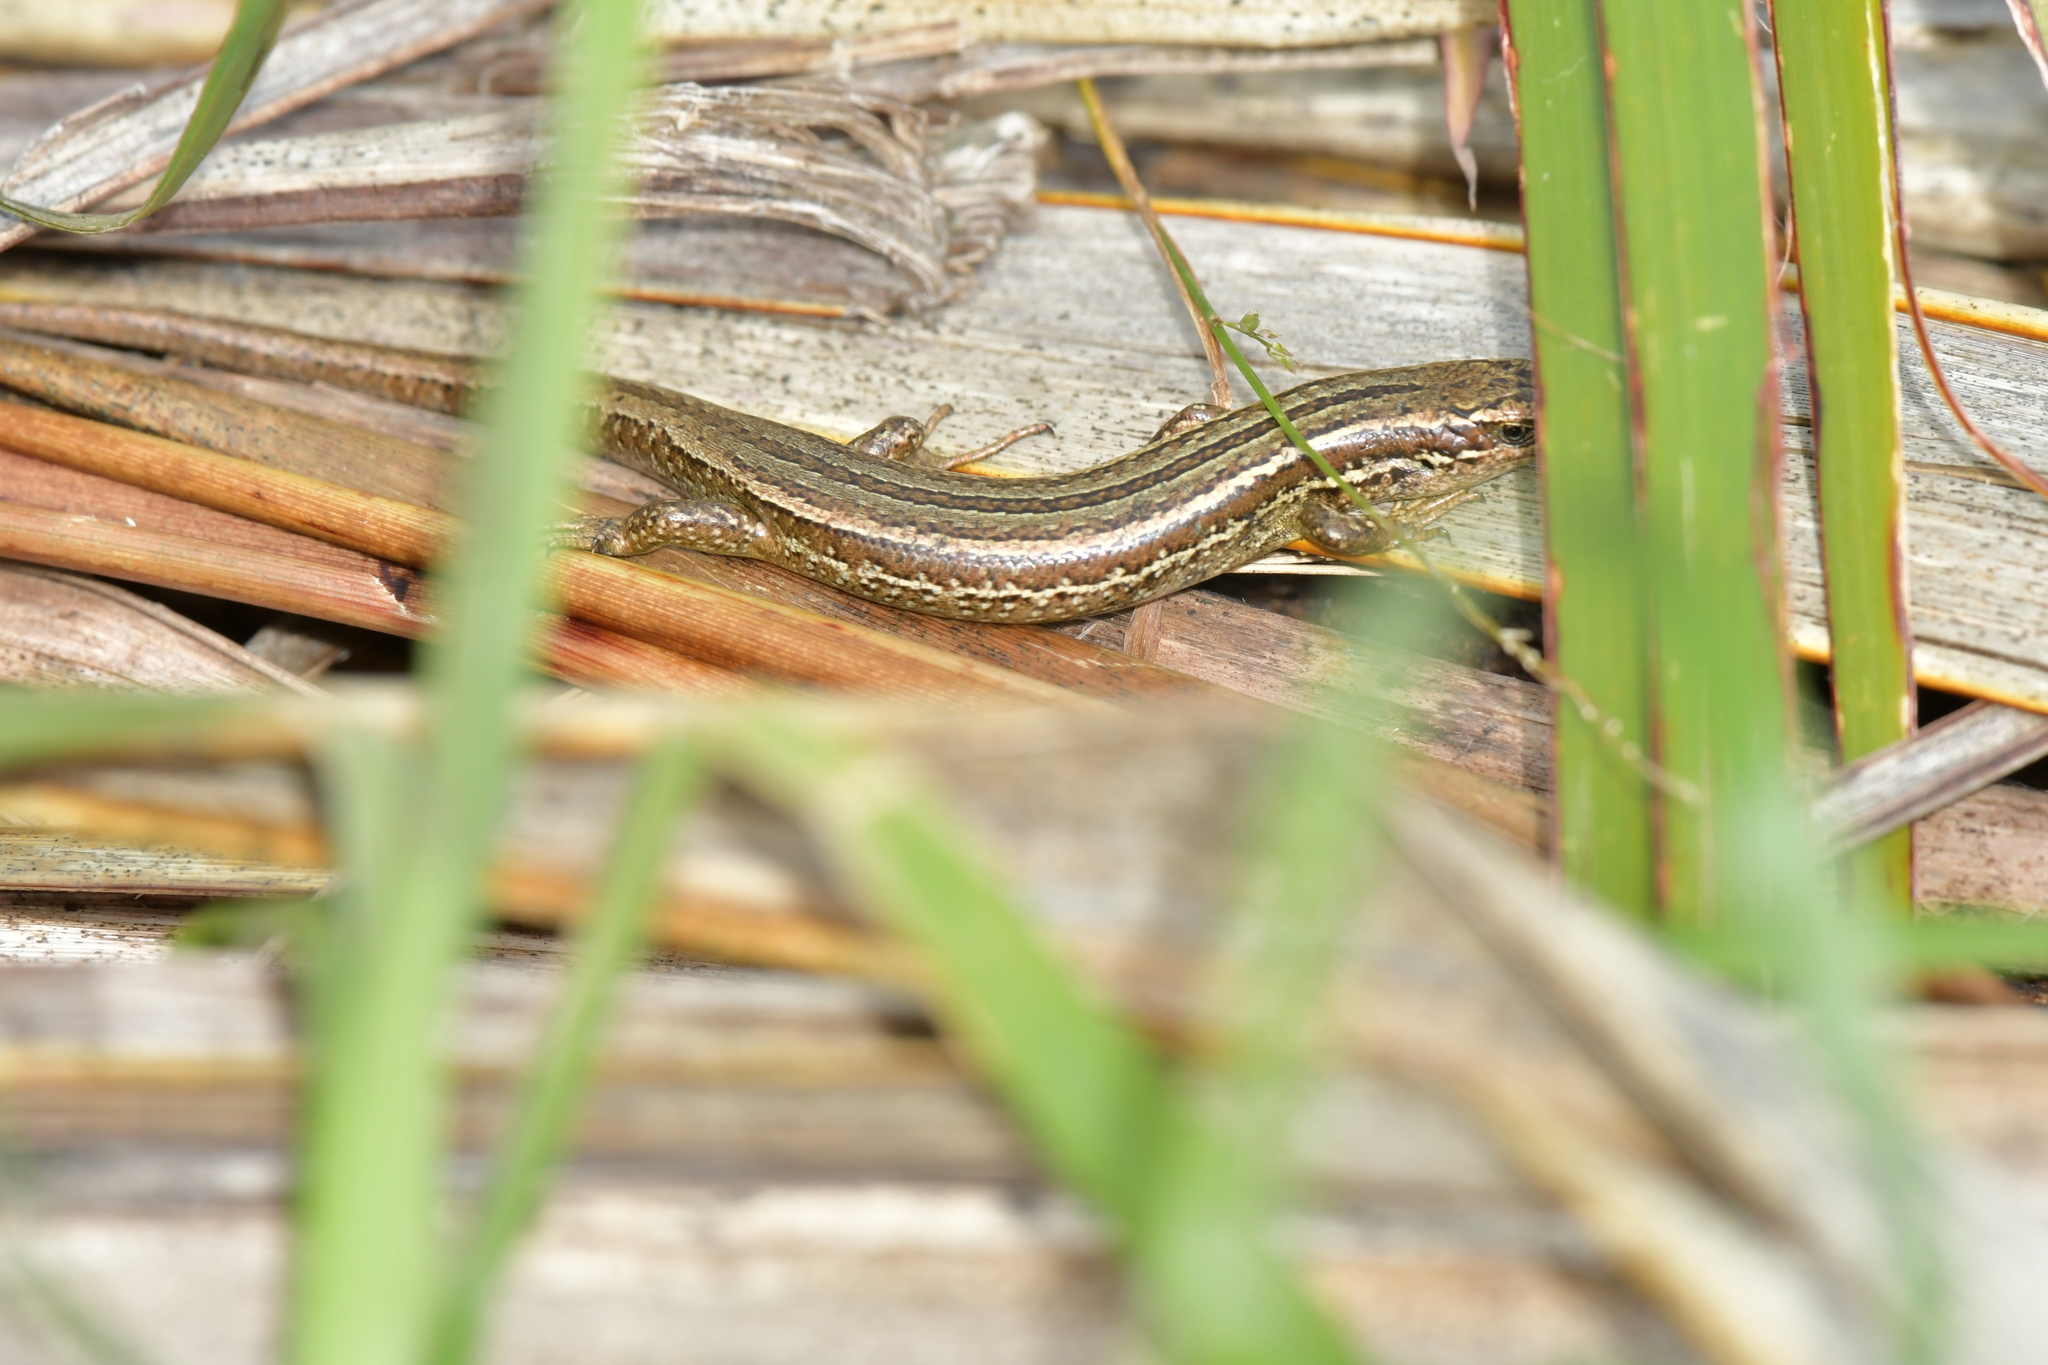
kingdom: Animalia
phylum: Chordata
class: Squamata
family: Scincidae
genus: Oligosoma
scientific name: Oligosoma polychroma
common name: Common new zealand skink
